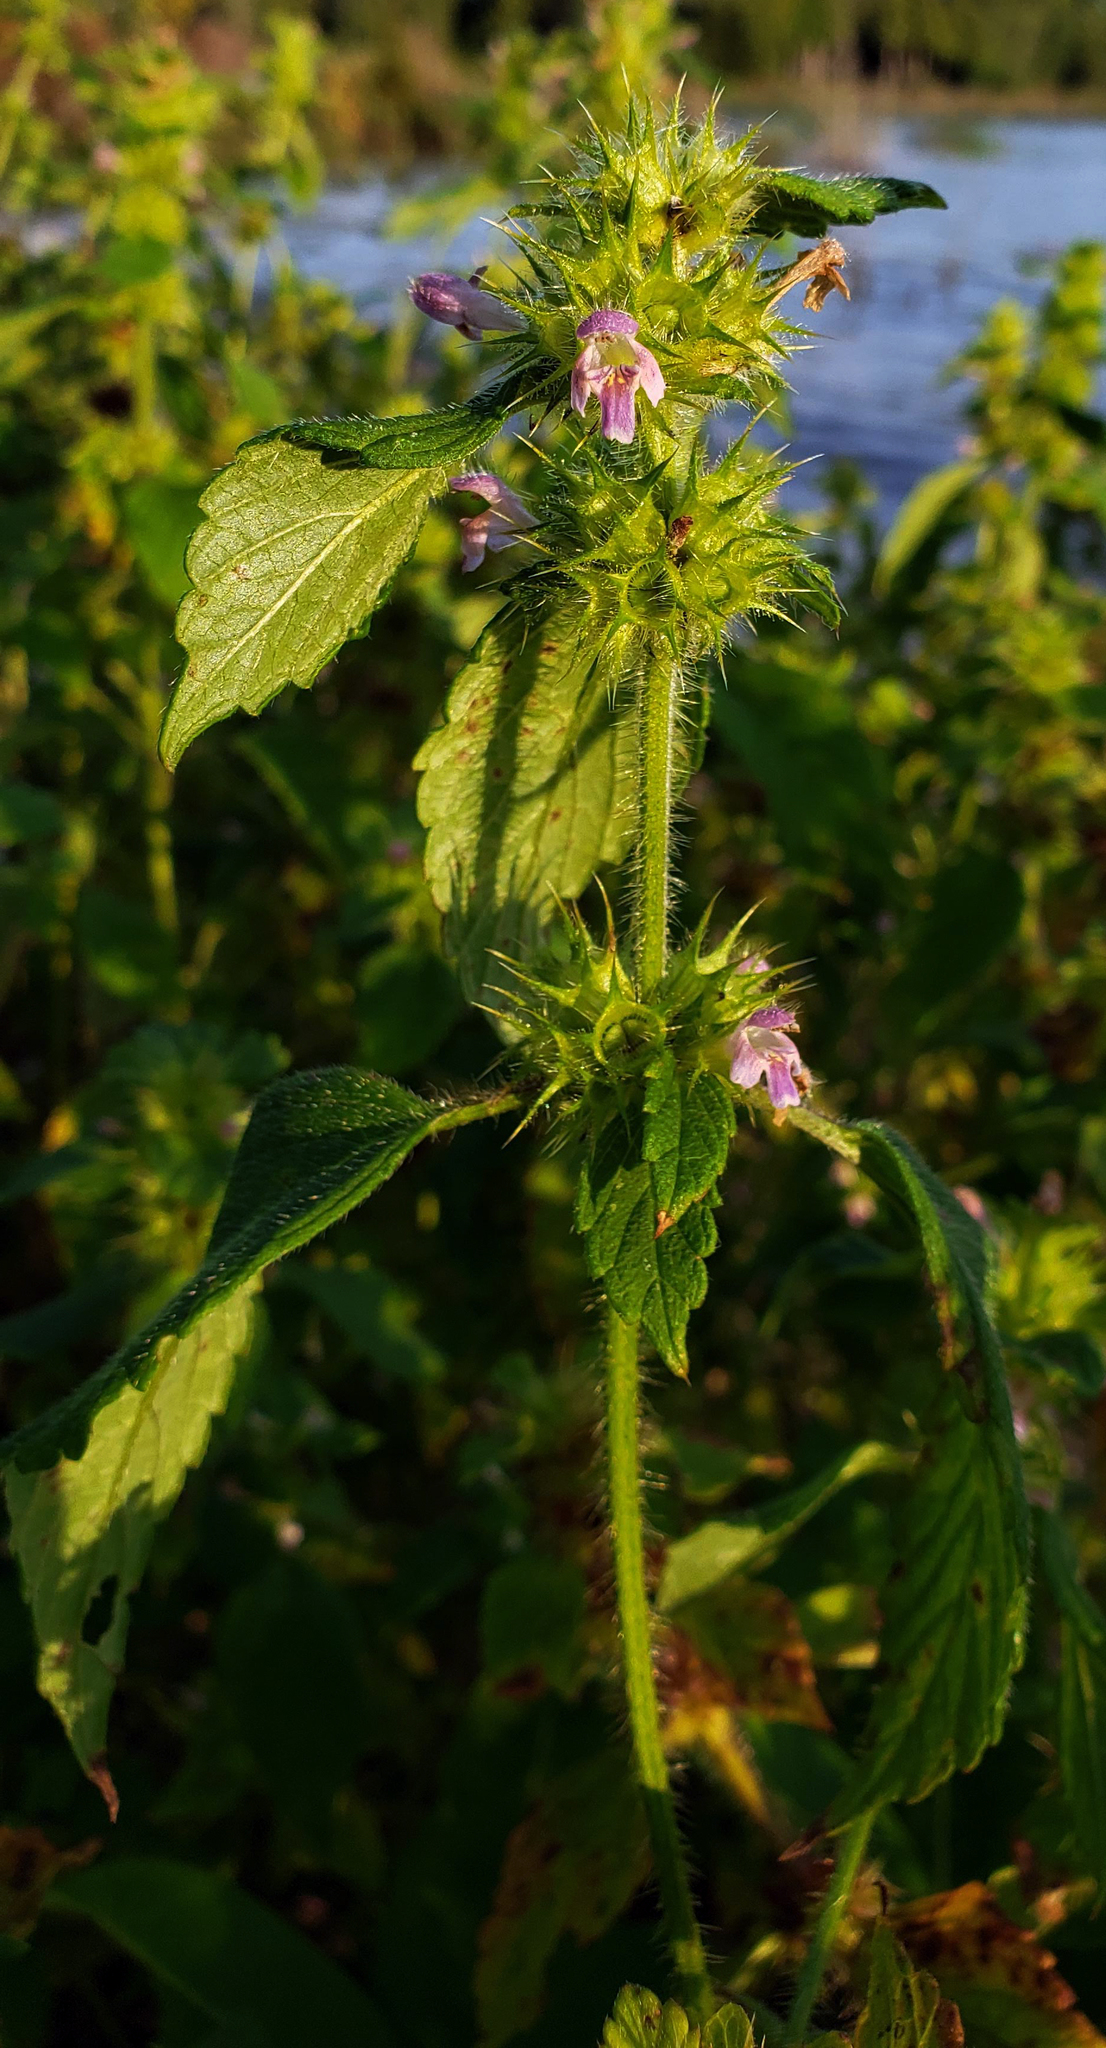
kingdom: Plantae
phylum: Tracheophyta
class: Magnoliopsida
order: Lamiales
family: Lamiaceae
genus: Galeopsis
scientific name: Galeopsis tetrahit
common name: Common hemp-nettle
